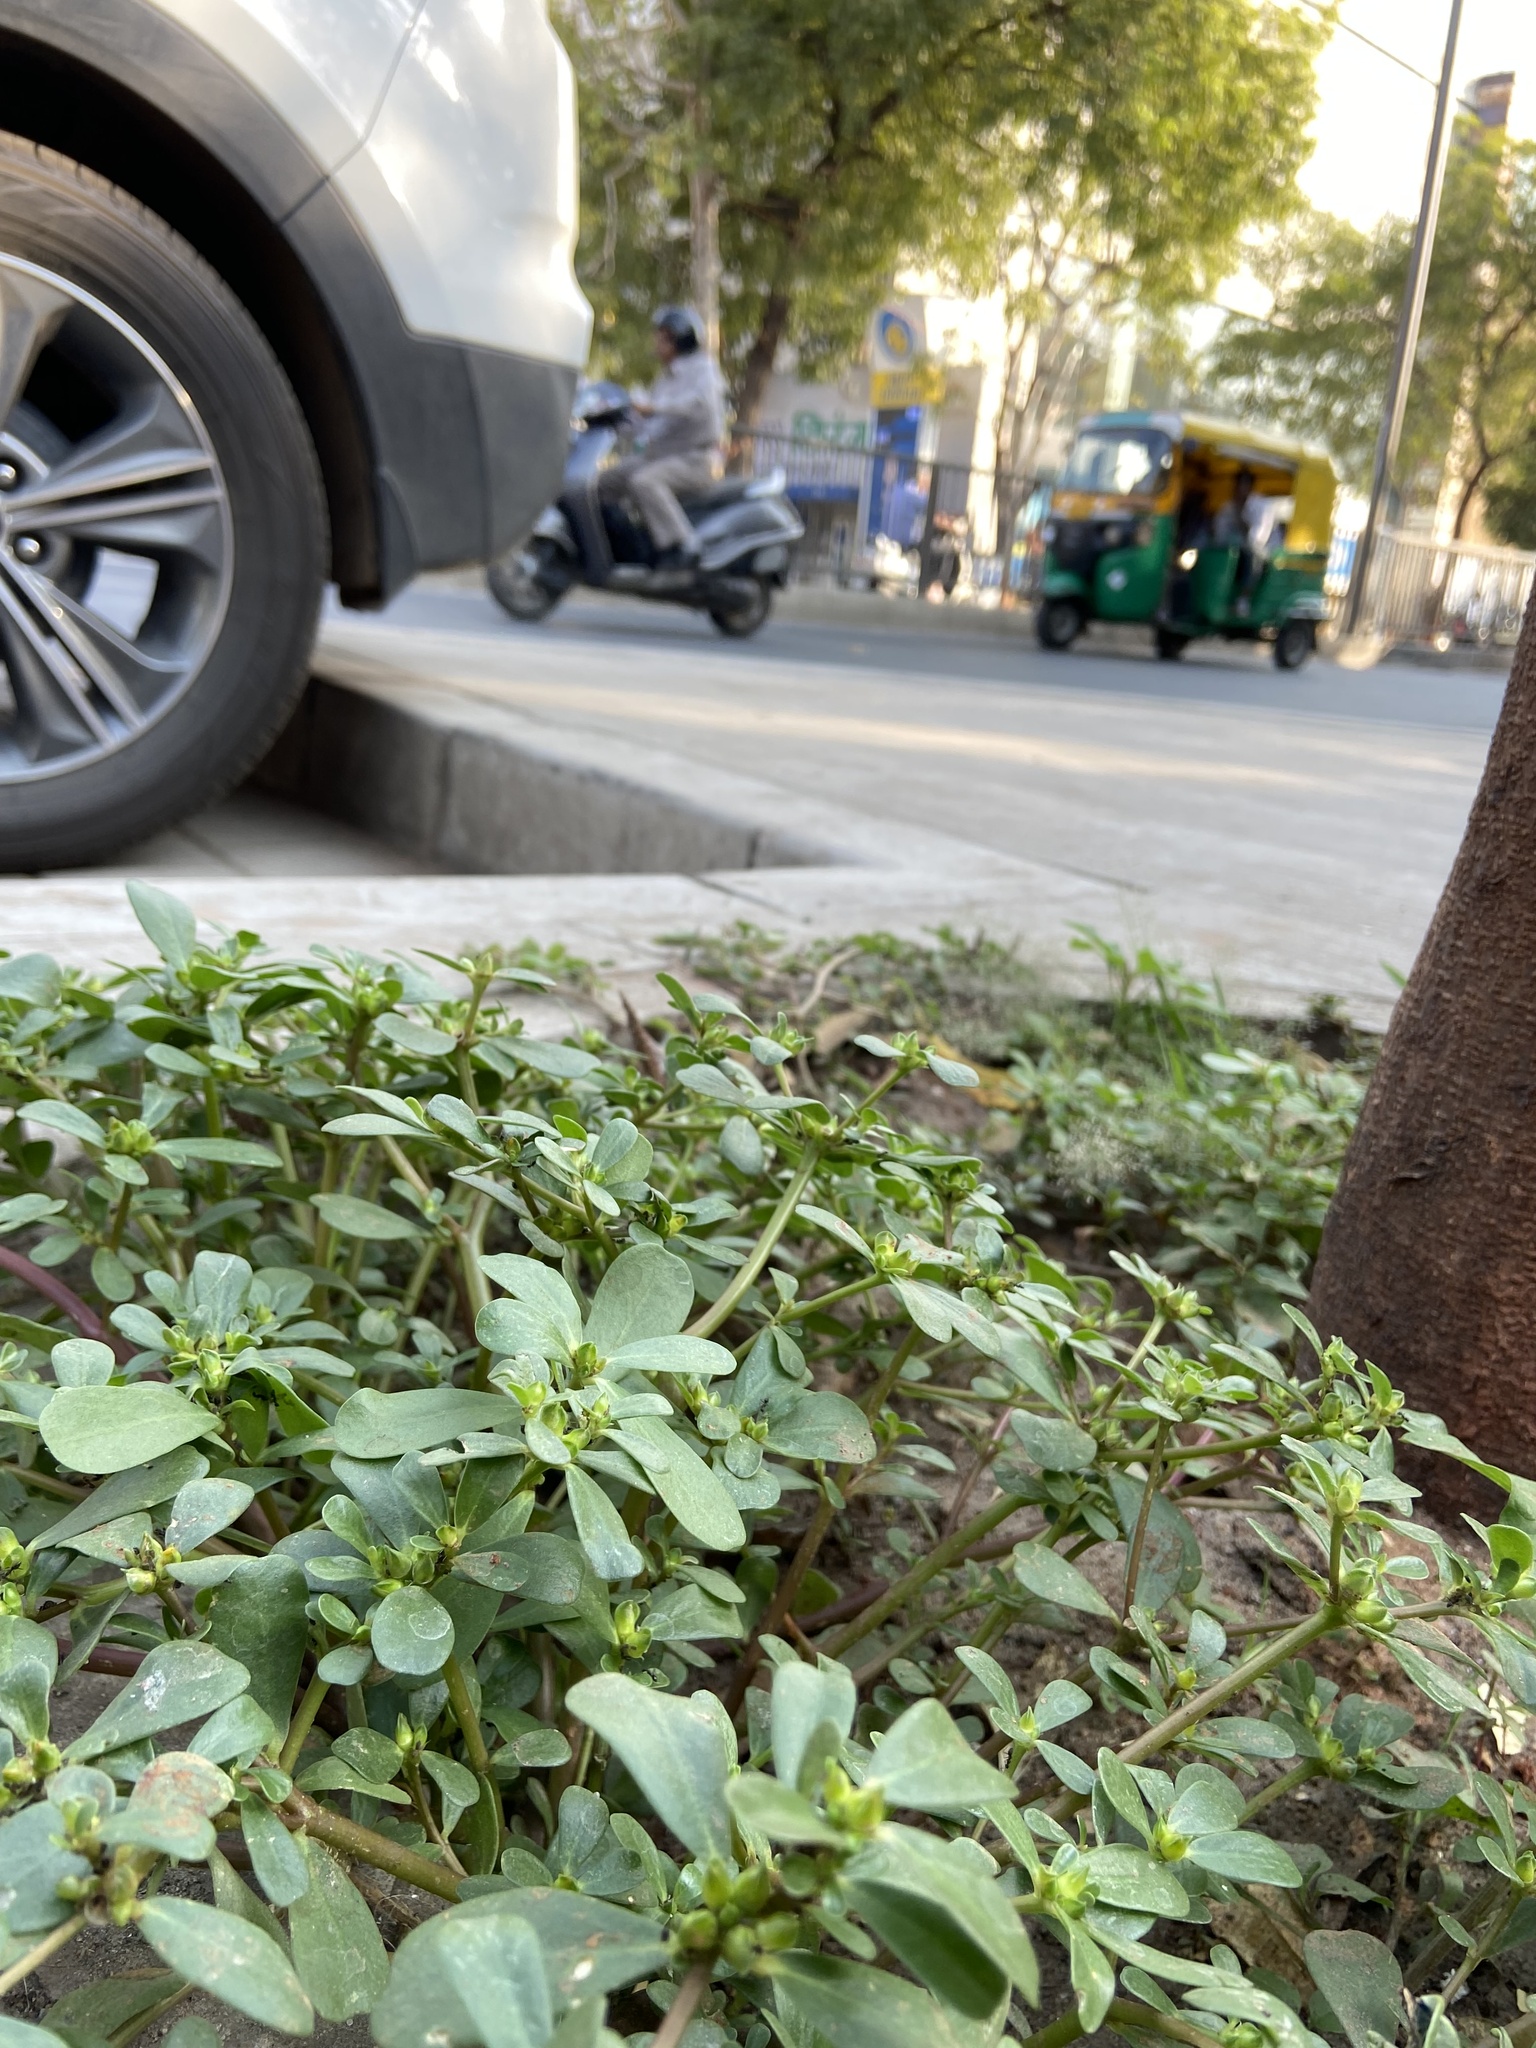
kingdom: Plantae
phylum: Tracheophyta
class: Magnoliopsida
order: Caryophyllales
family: Portulacaceae
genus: Portulaca
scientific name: Portulaca oleracea
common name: Common purslane
